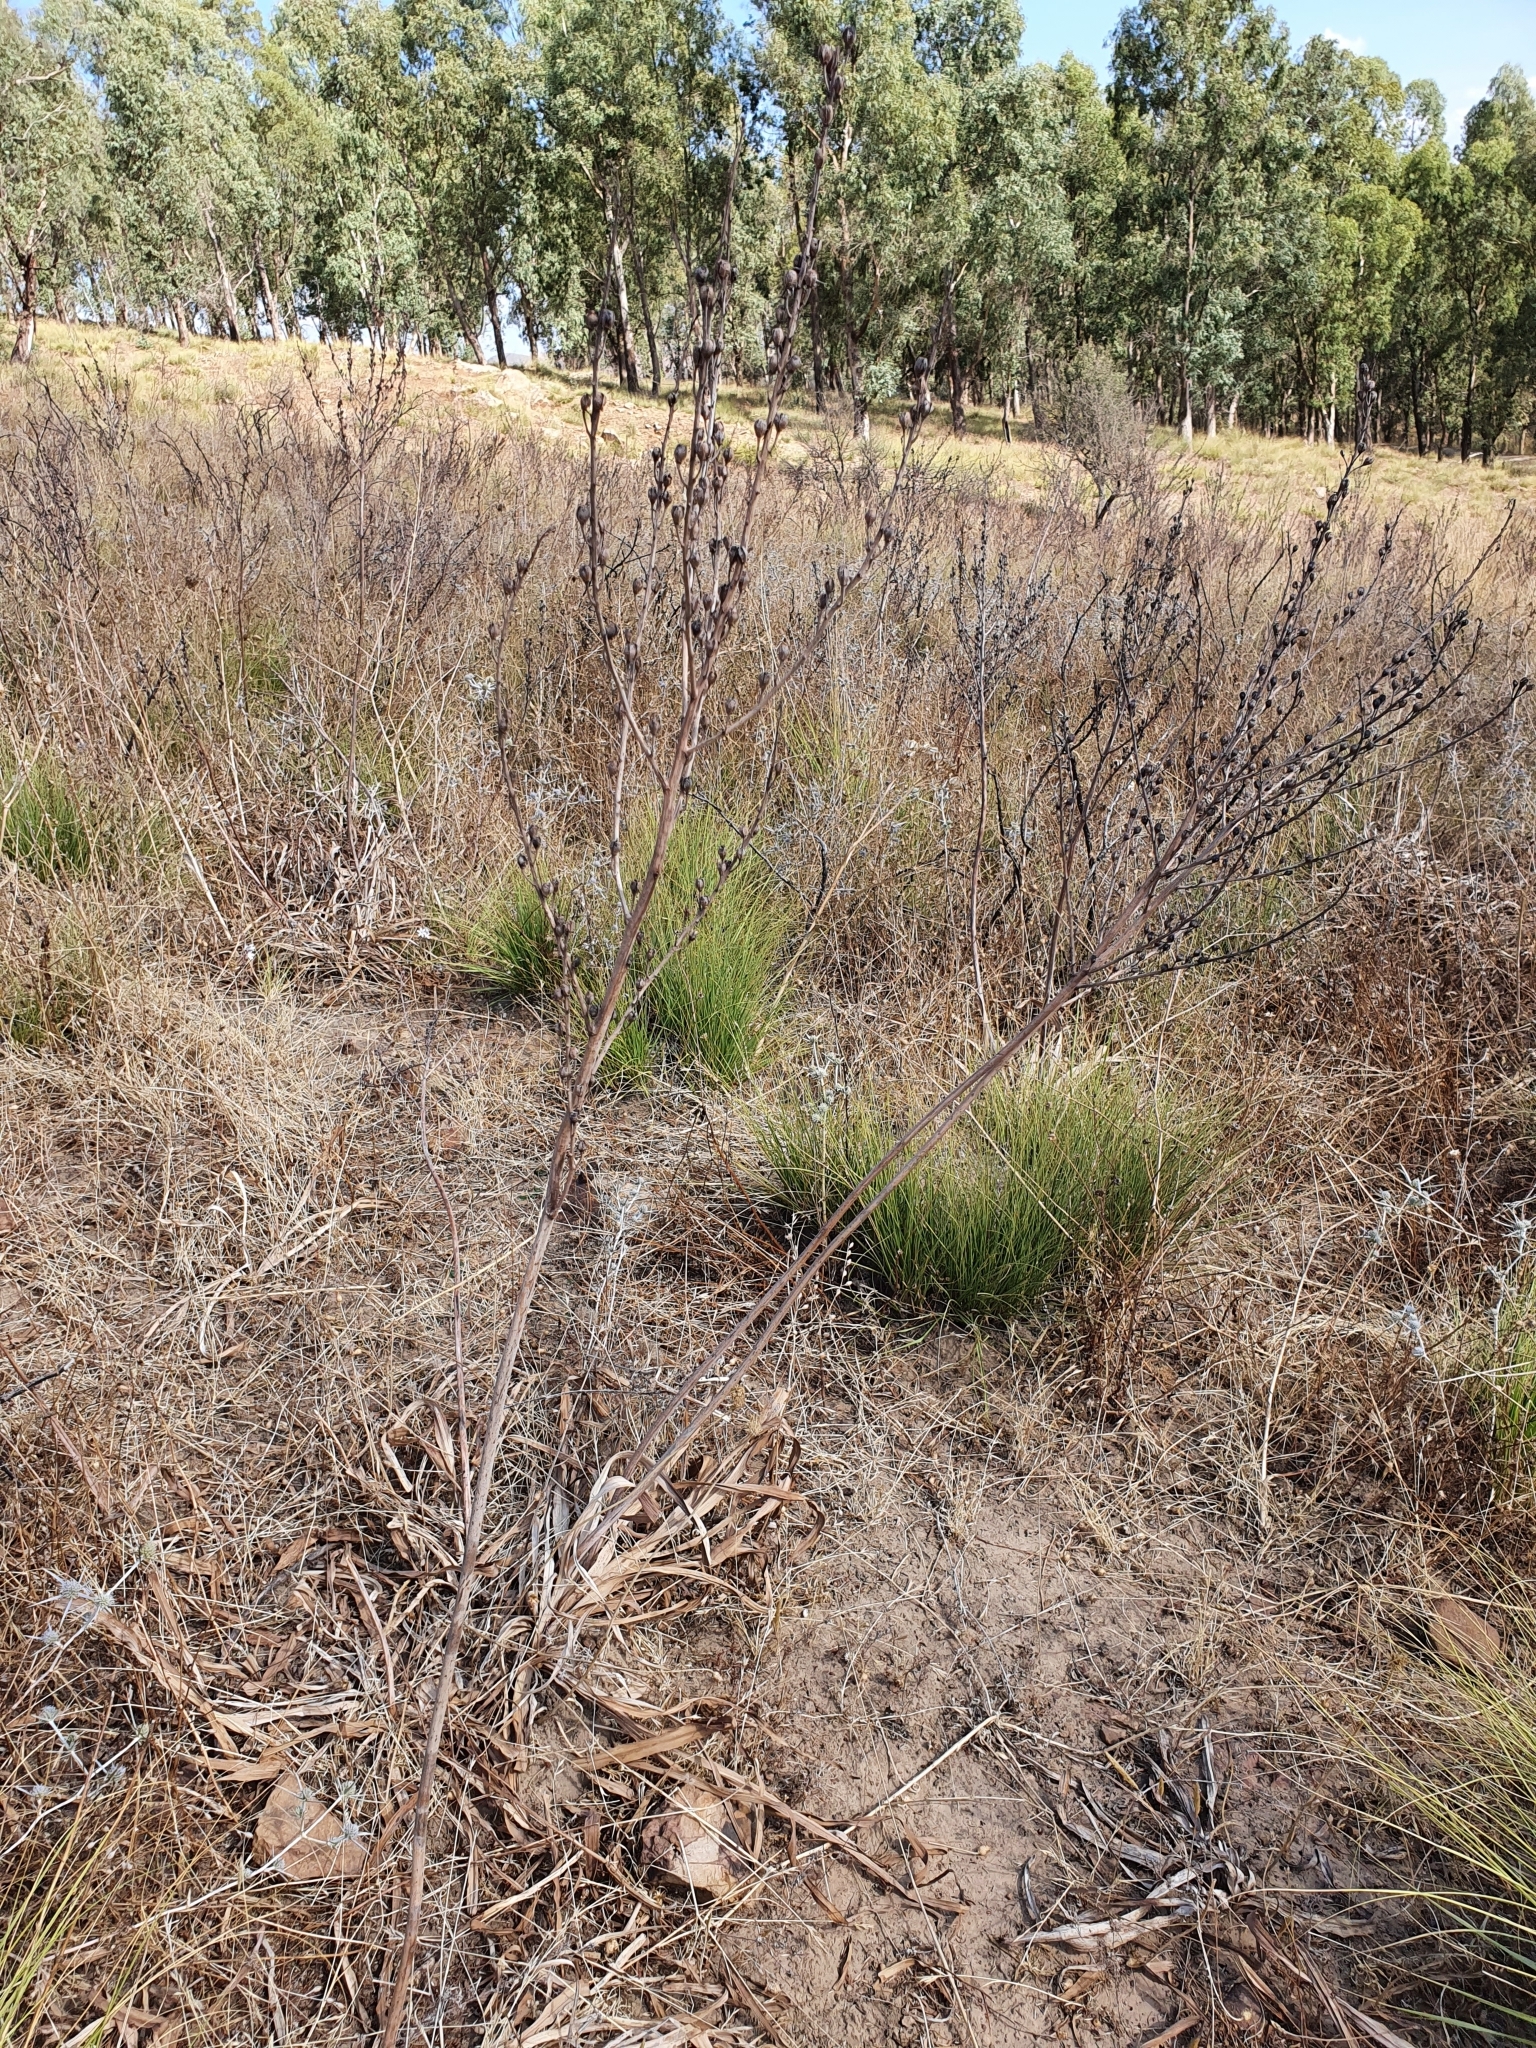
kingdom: Plantae
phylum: Tracheophyta
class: Liliopsida
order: Asparagales
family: Asphodelaceae
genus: Asphodelus
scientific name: Asphodelus ramosus
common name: Silverrod
